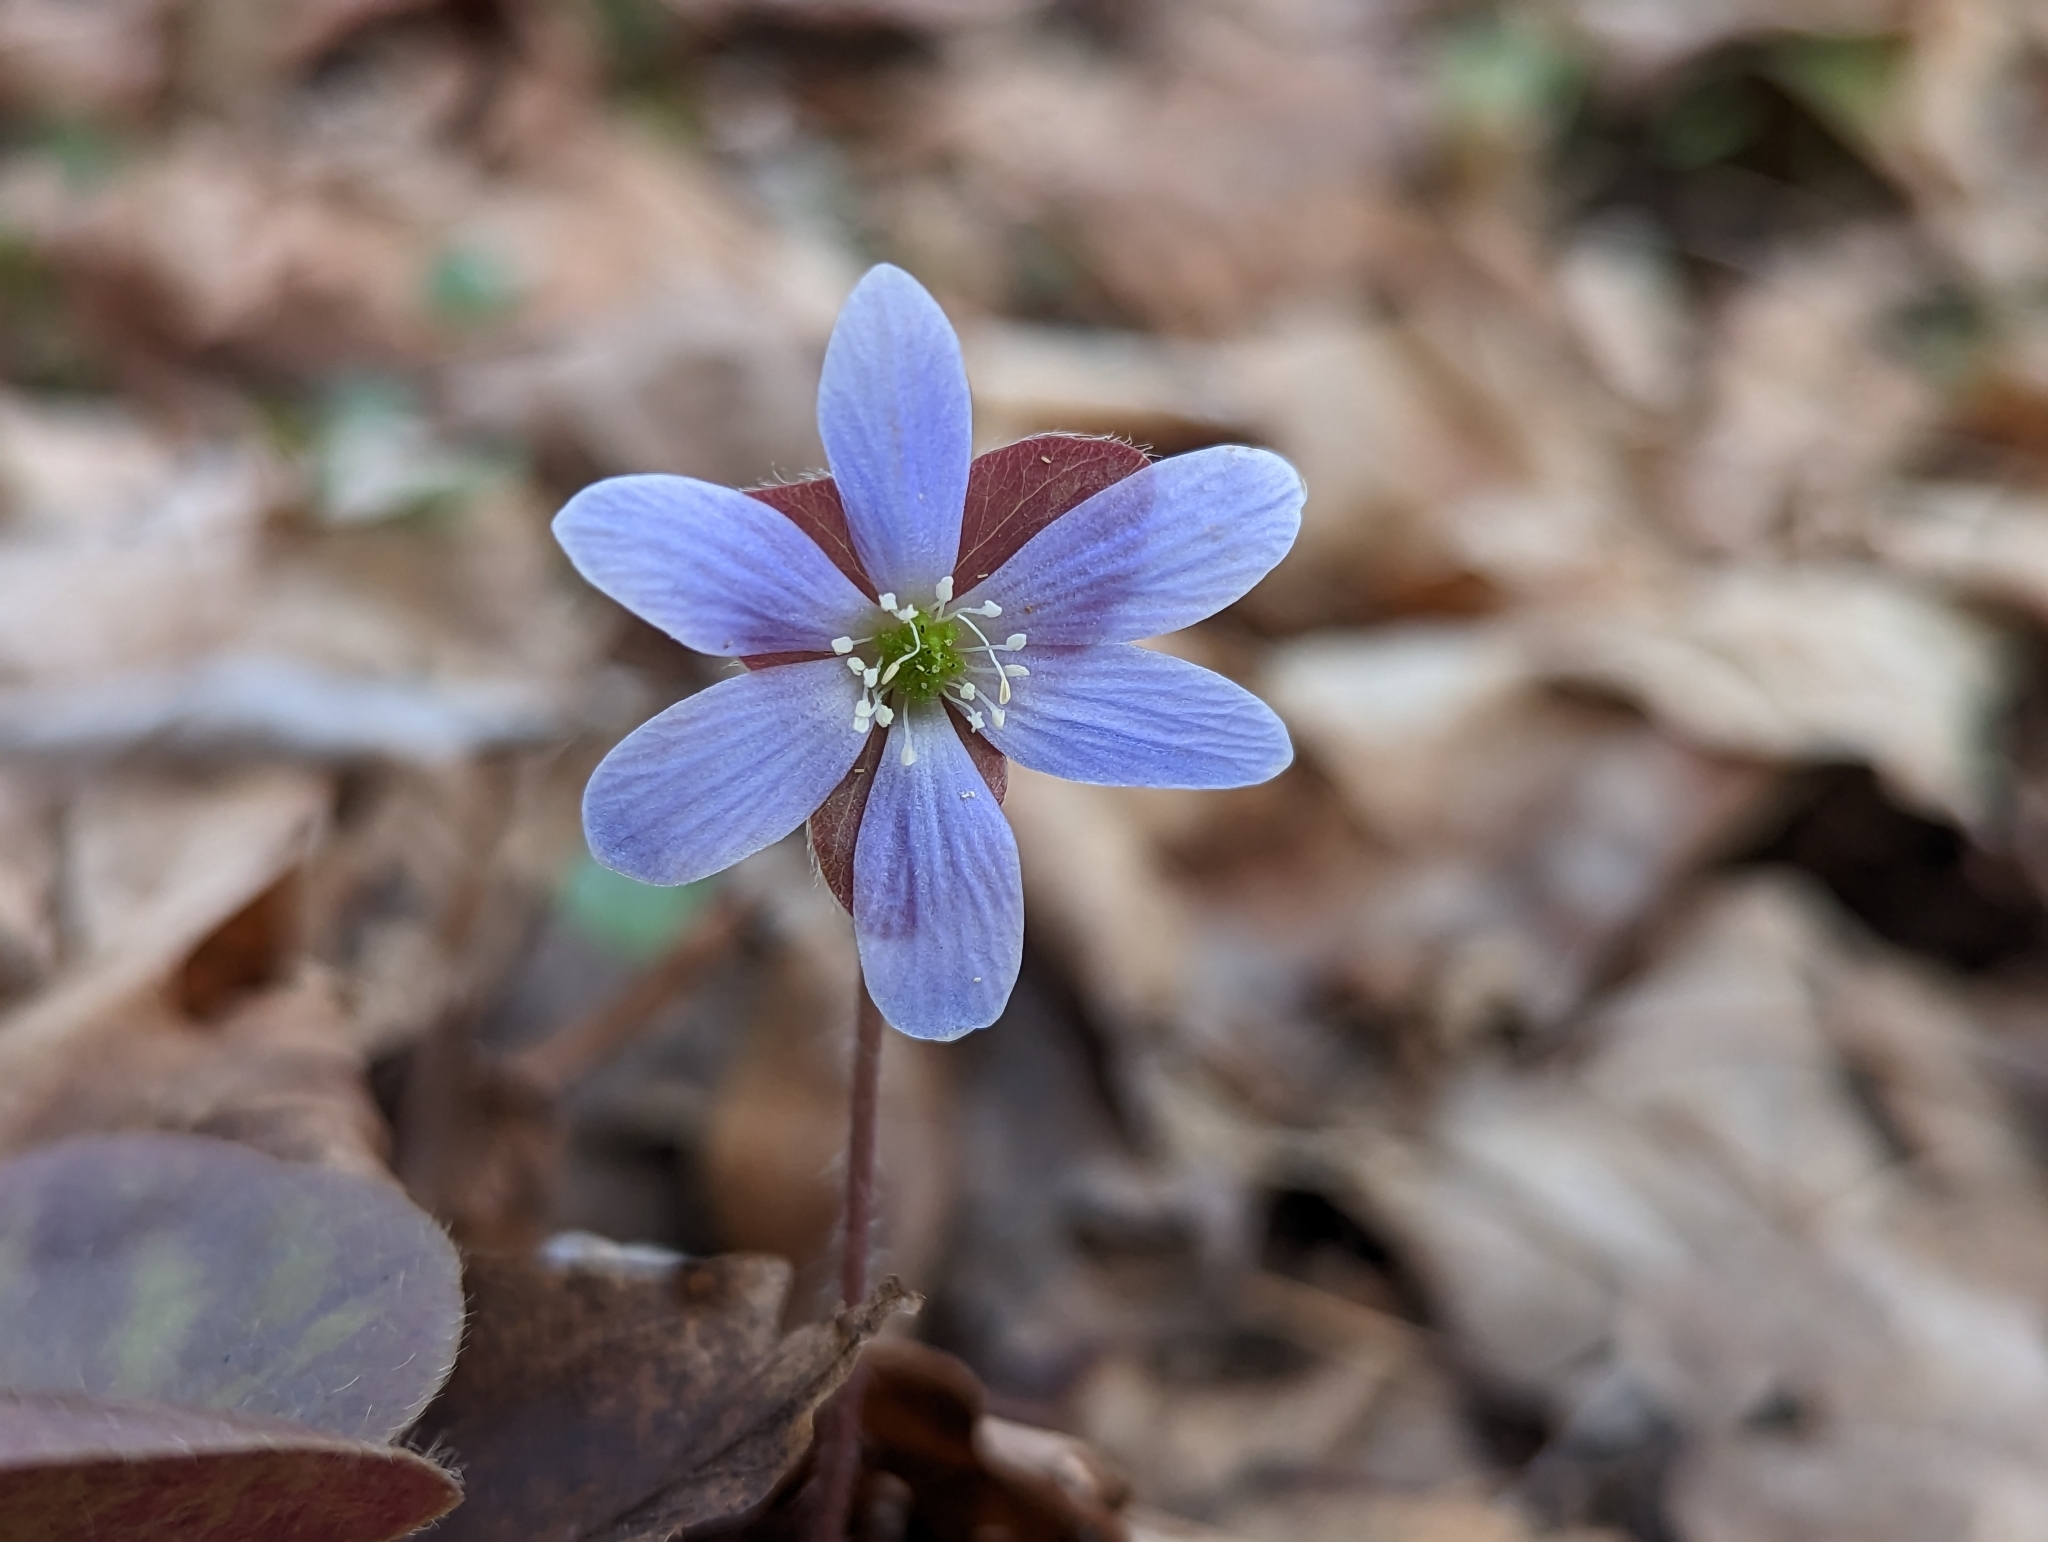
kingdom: Plantae
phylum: Tracheophyta
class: Magnoliopsida
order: Ranunculales
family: Ranunculaceae
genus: Hepatica
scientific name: Hepatica americana
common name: American hepatica
